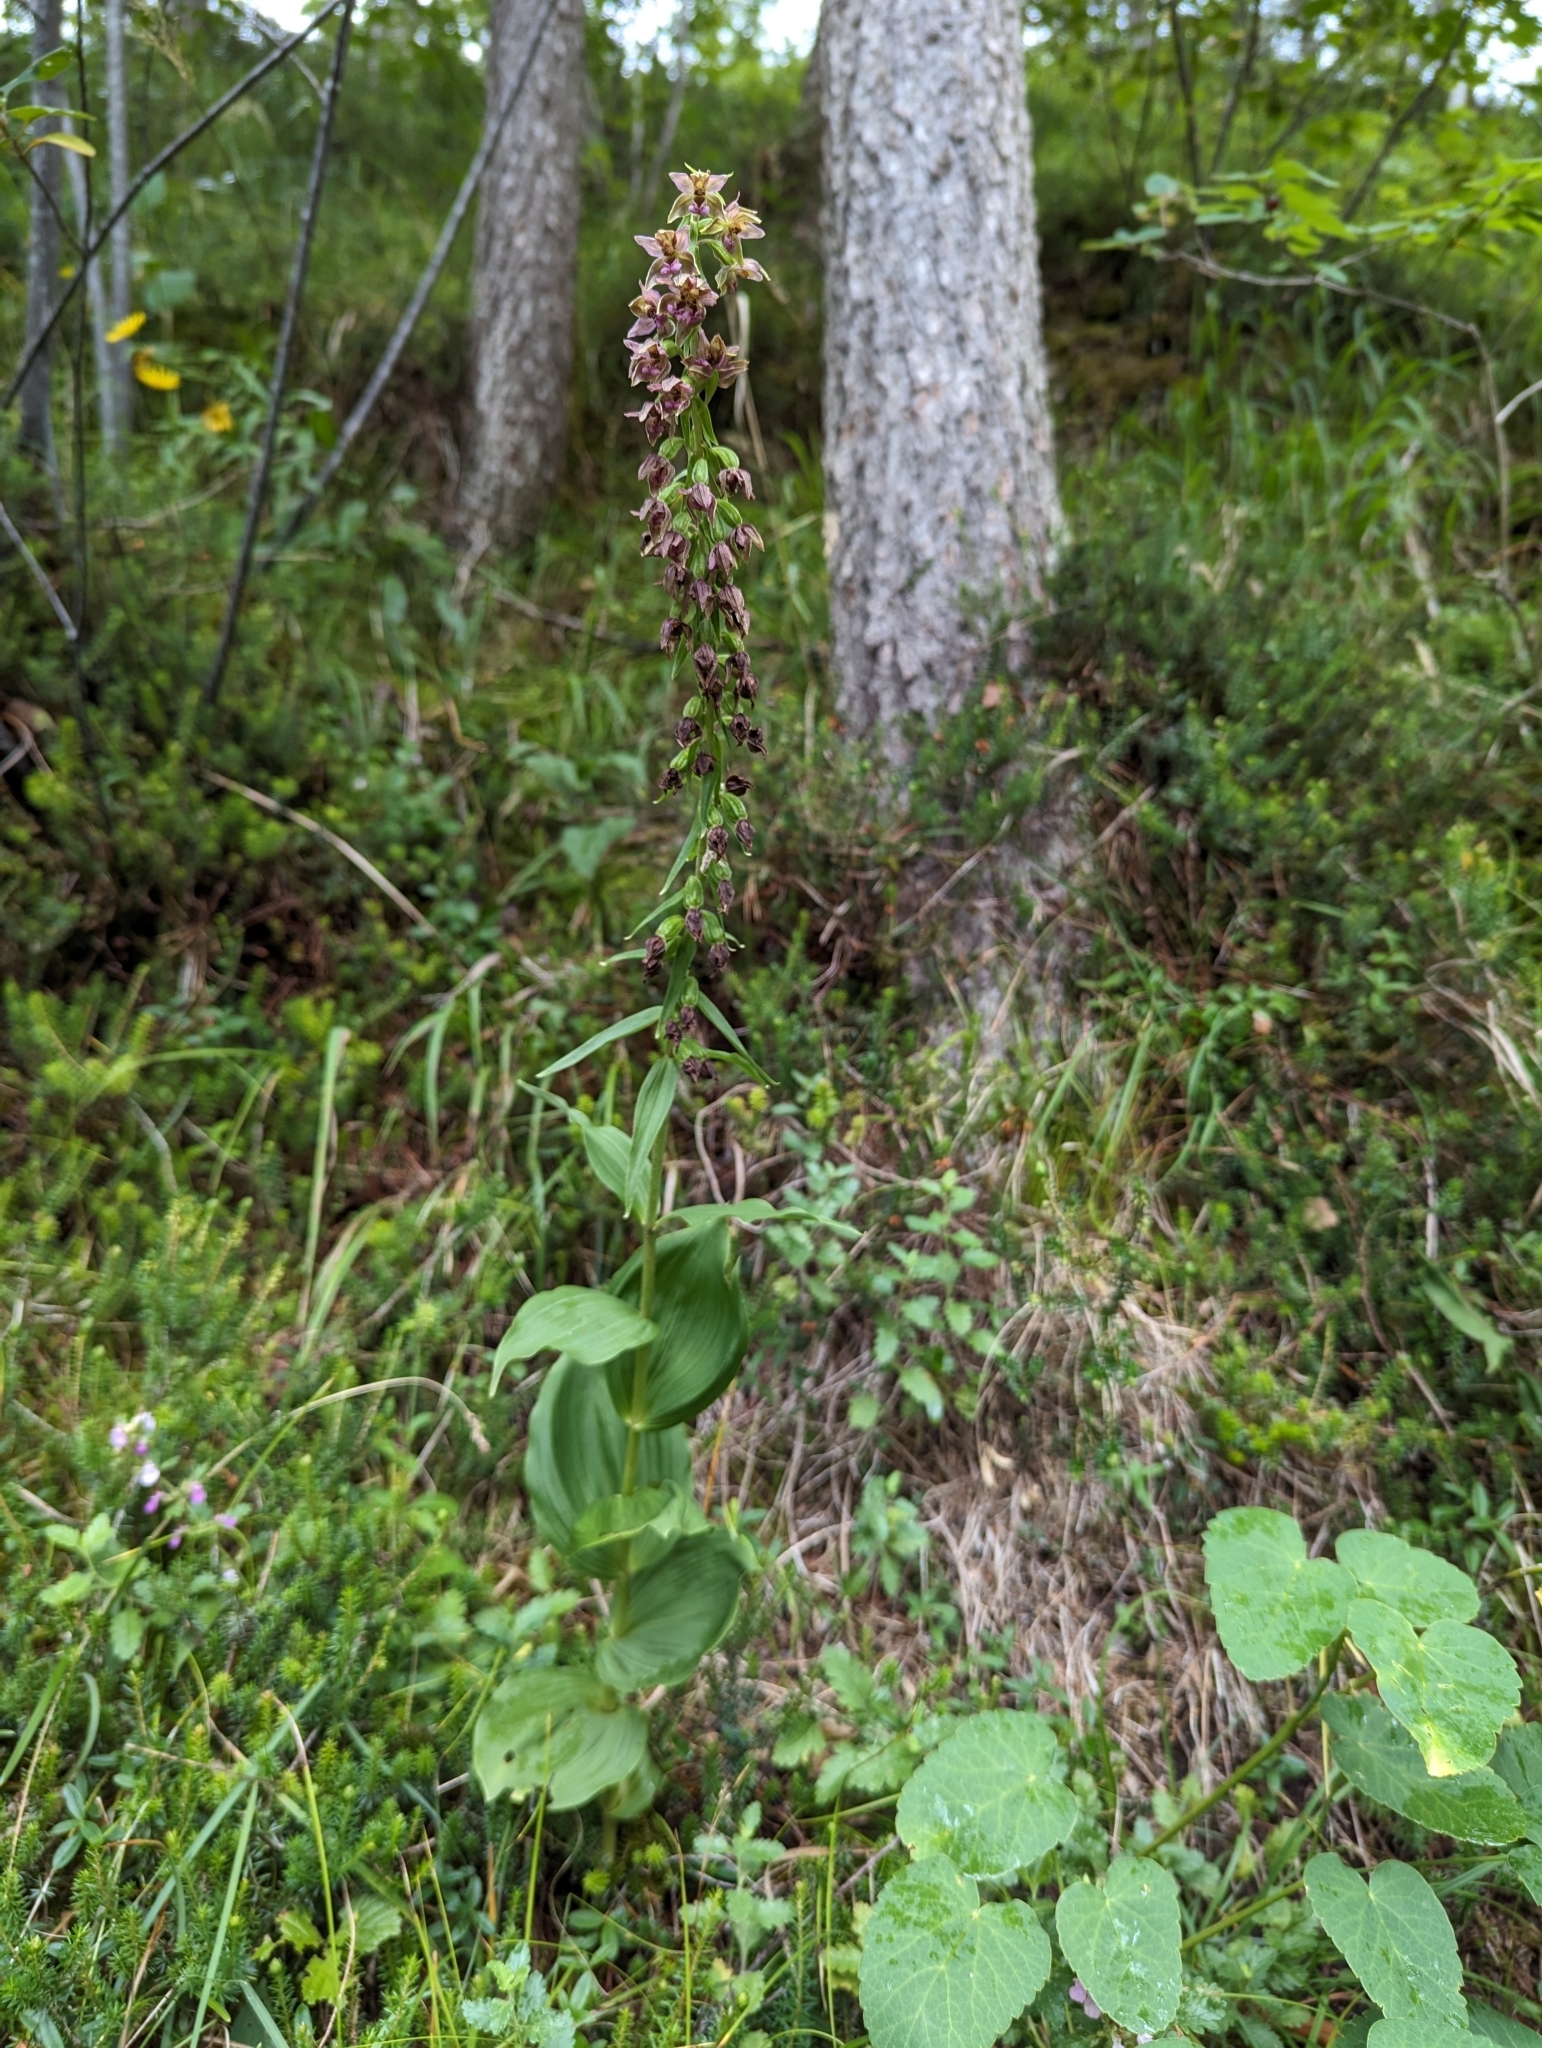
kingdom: Plantae
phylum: Tracheophyta
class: Liliopsida
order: Asparagales
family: Orchidaceae
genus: Epipactis
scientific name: Epipactis helleborine
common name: Broad-leaved helleborine
